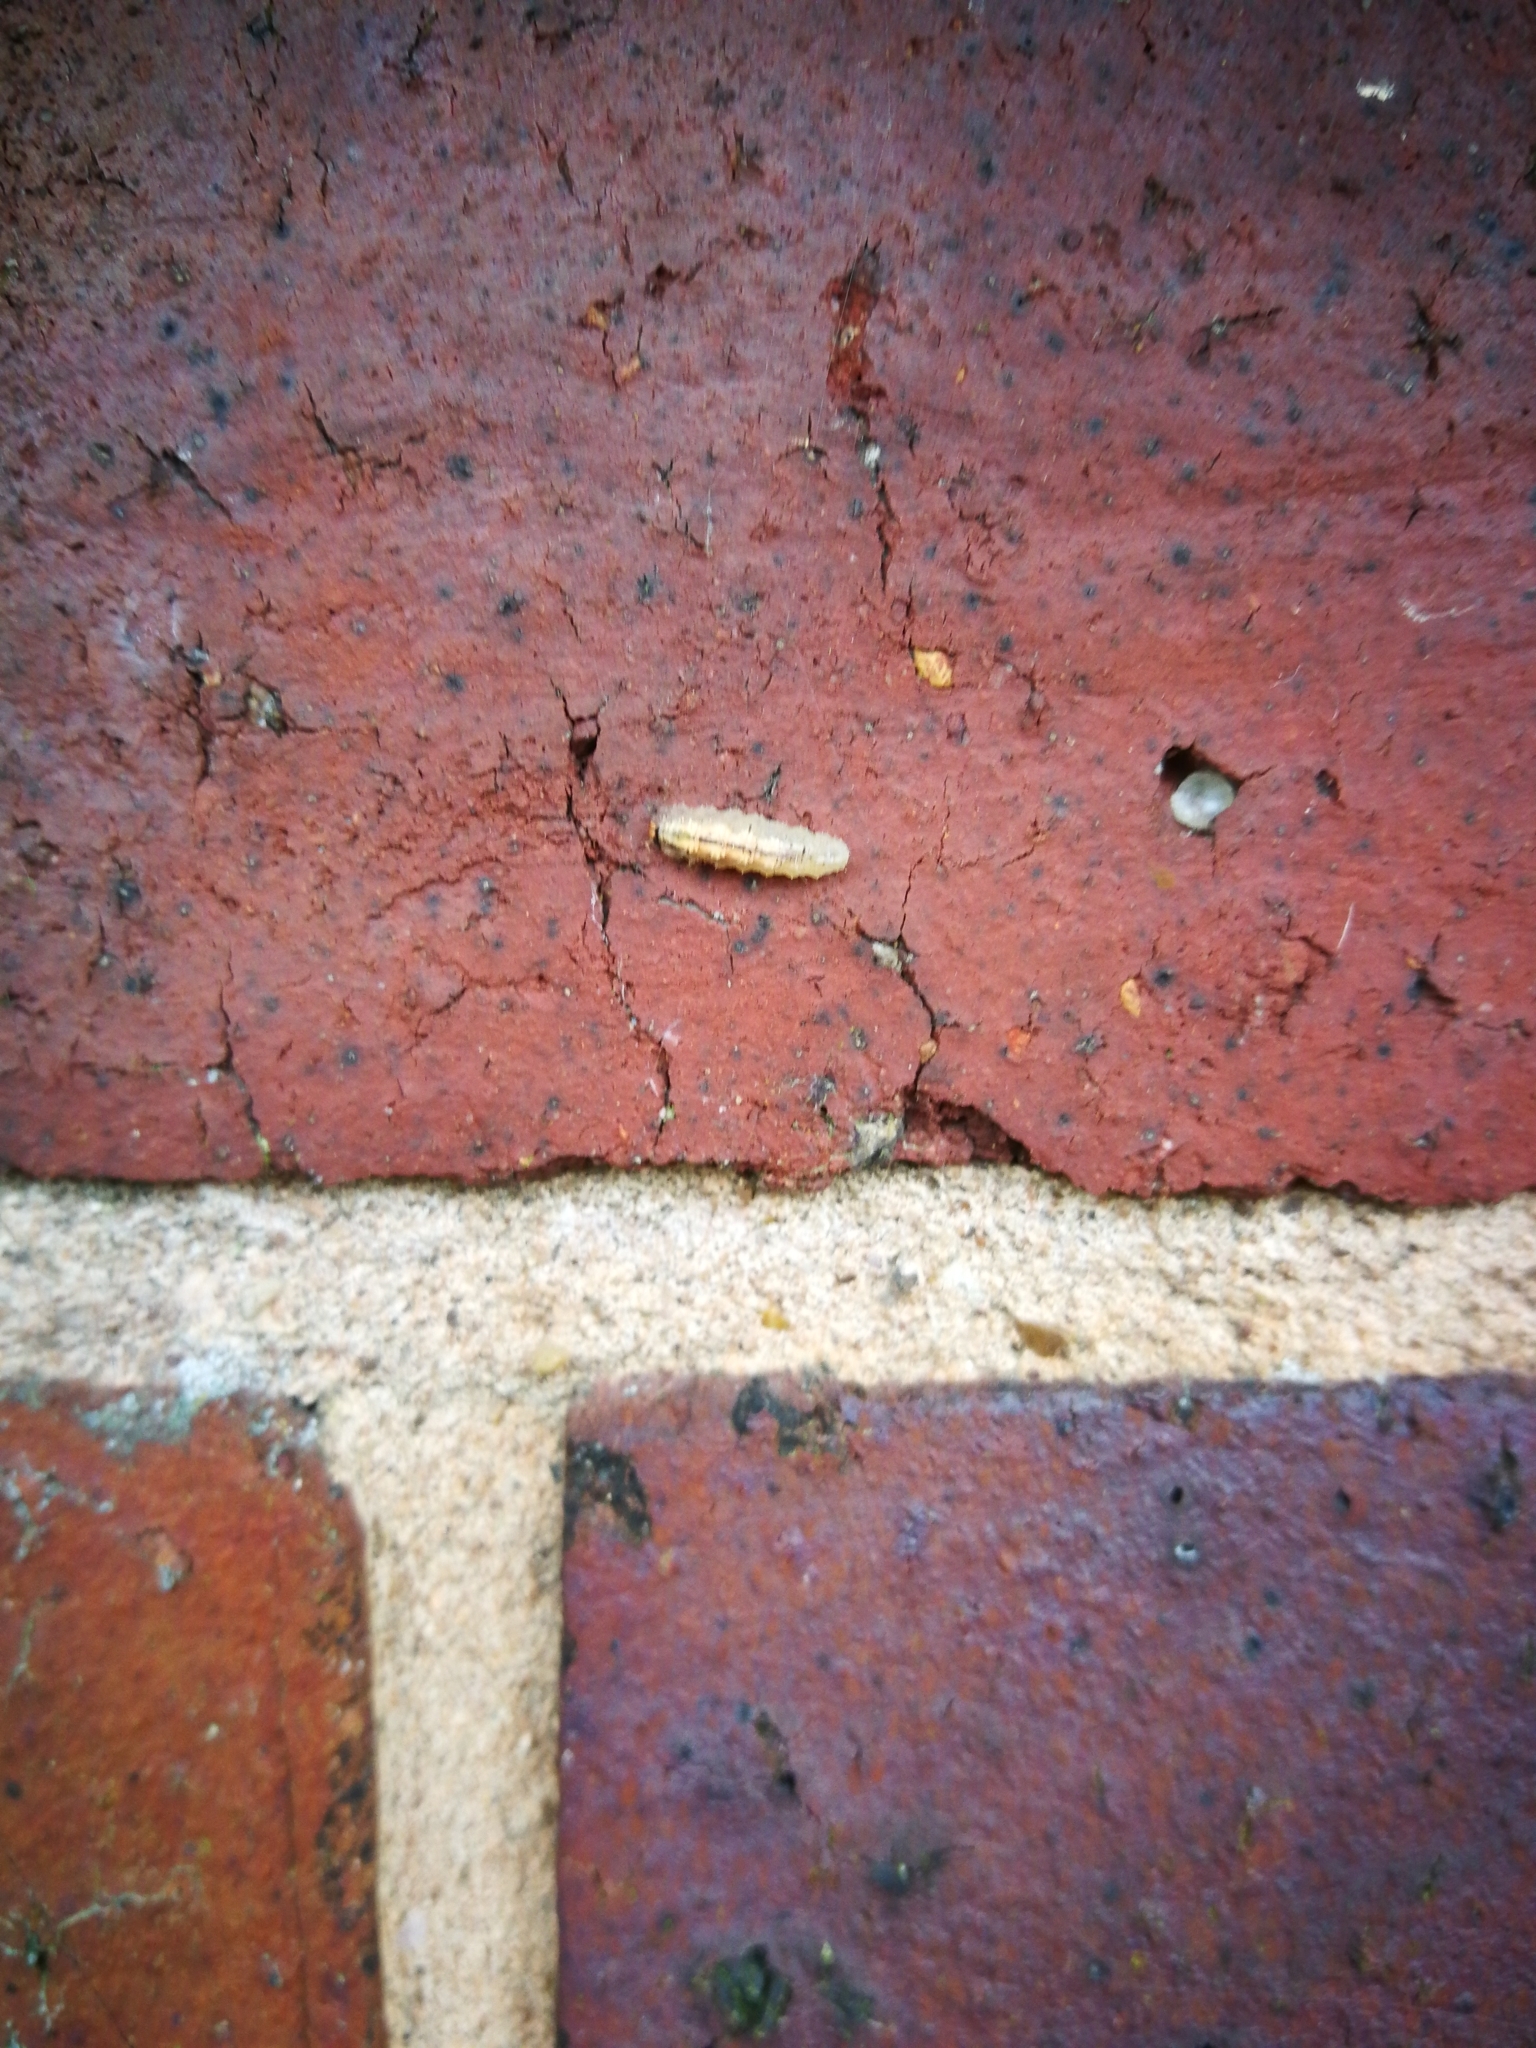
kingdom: Animalia
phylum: Arthropoda
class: Insecta
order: Diptera
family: Syrphidae
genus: Syrphus
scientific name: Syrphus
